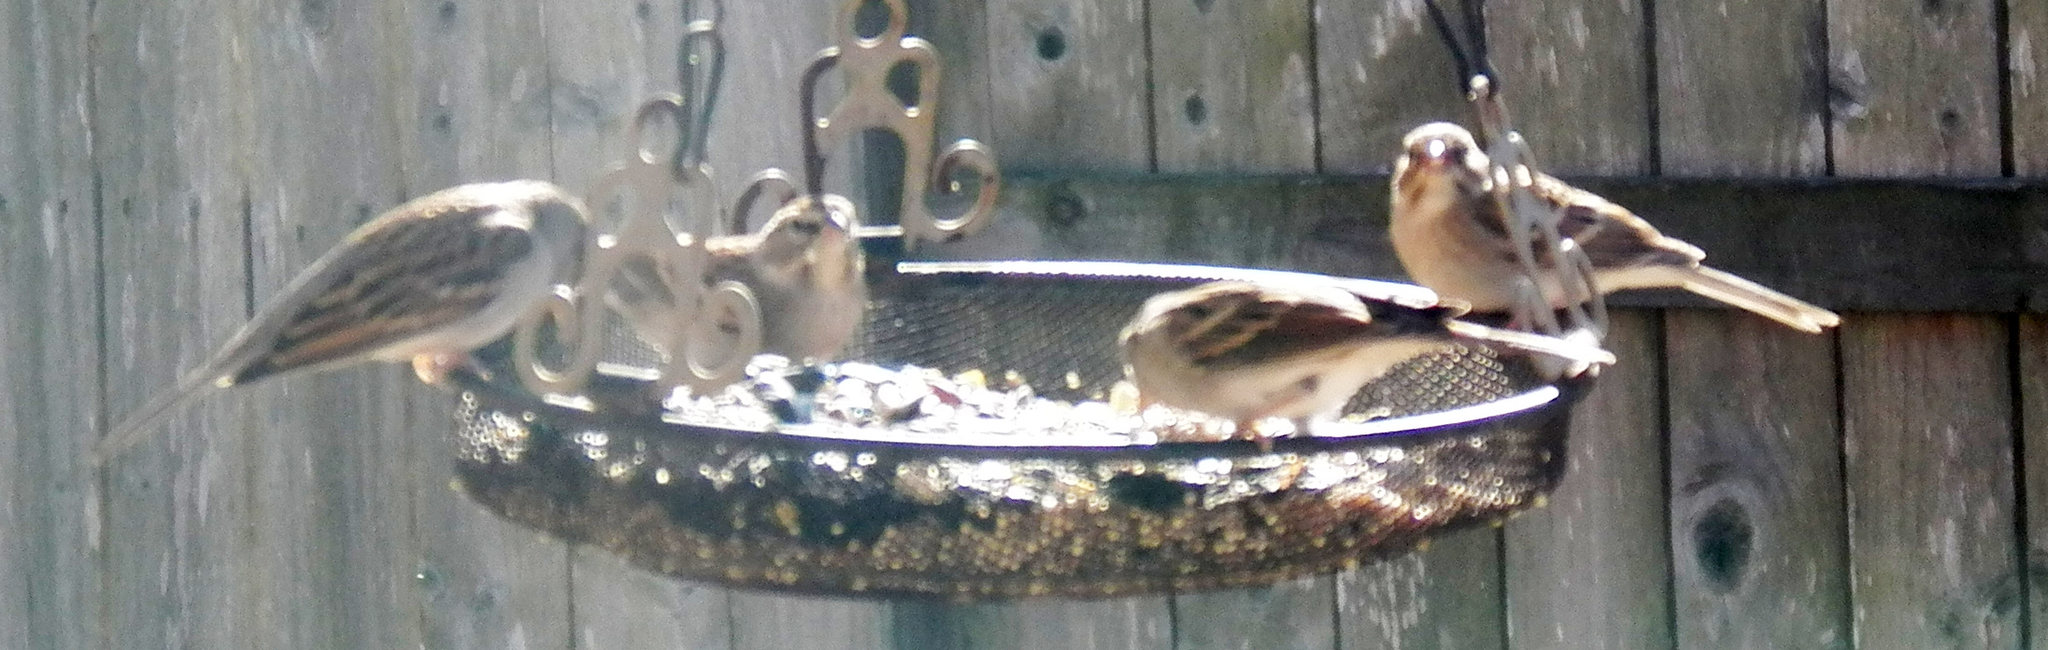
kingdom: Animalia
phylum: Chordata
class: Aves
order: Passeriformes
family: Passerellidae
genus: Spizella
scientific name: Spizella passerina
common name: Chipping sparrow
